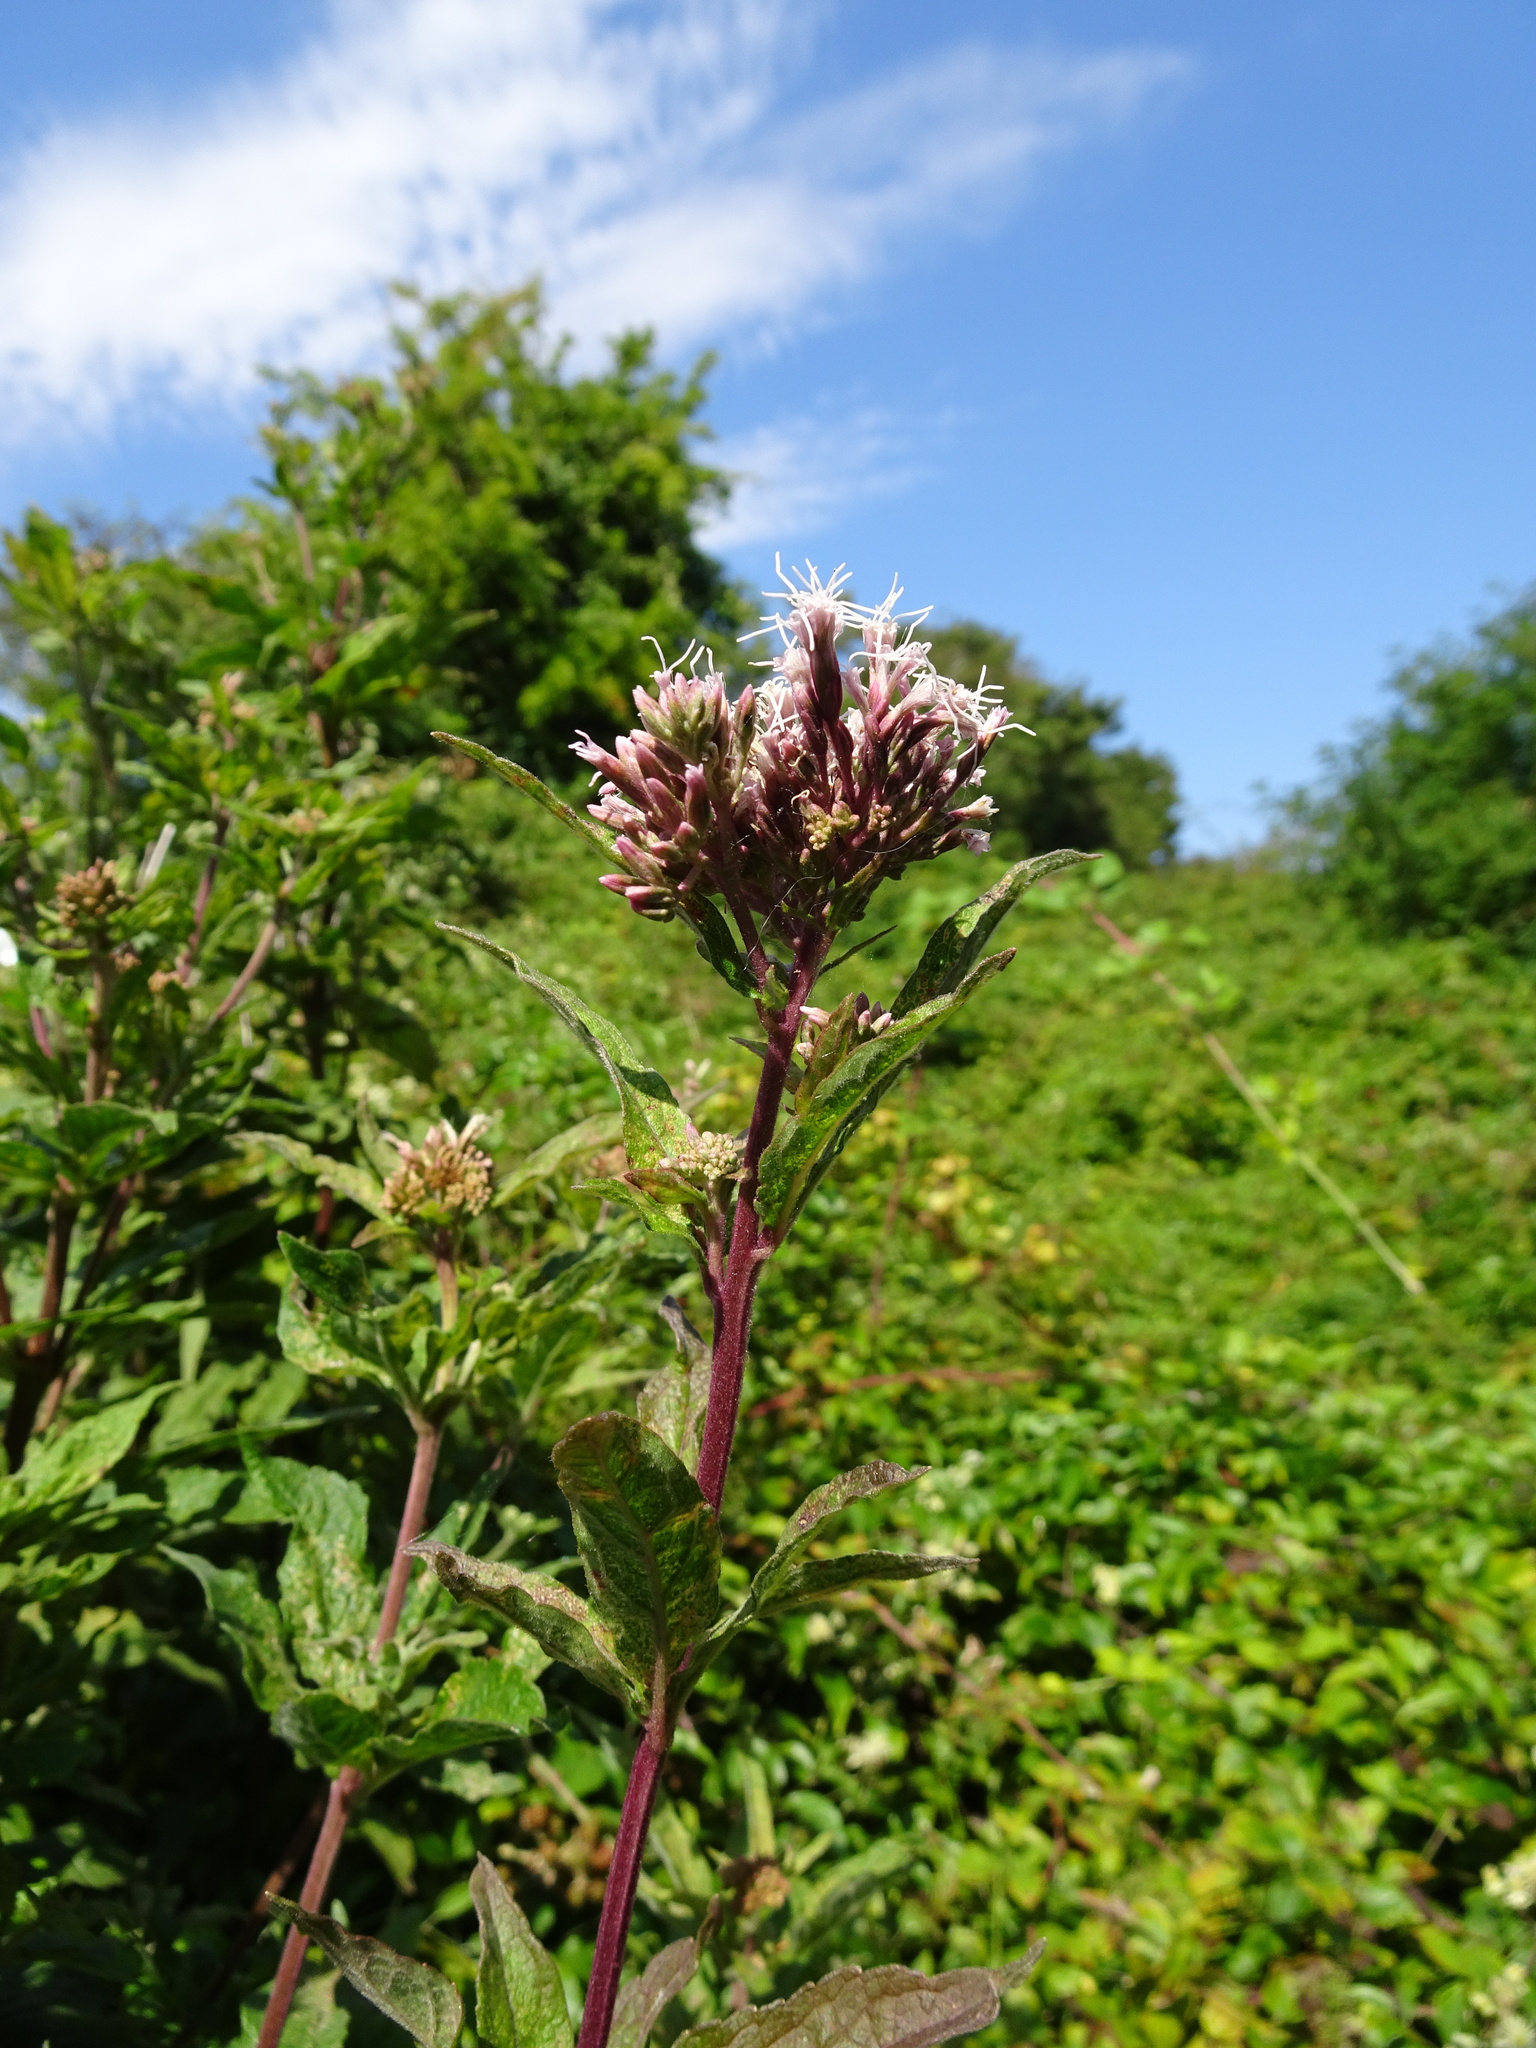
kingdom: Plantae
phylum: Tracheophyta
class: Magnoliopsida
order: Asterales
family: Asteraceae
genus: Eupatorium
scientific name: Eupatorium cannabinum
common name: Hemp-agrimony
